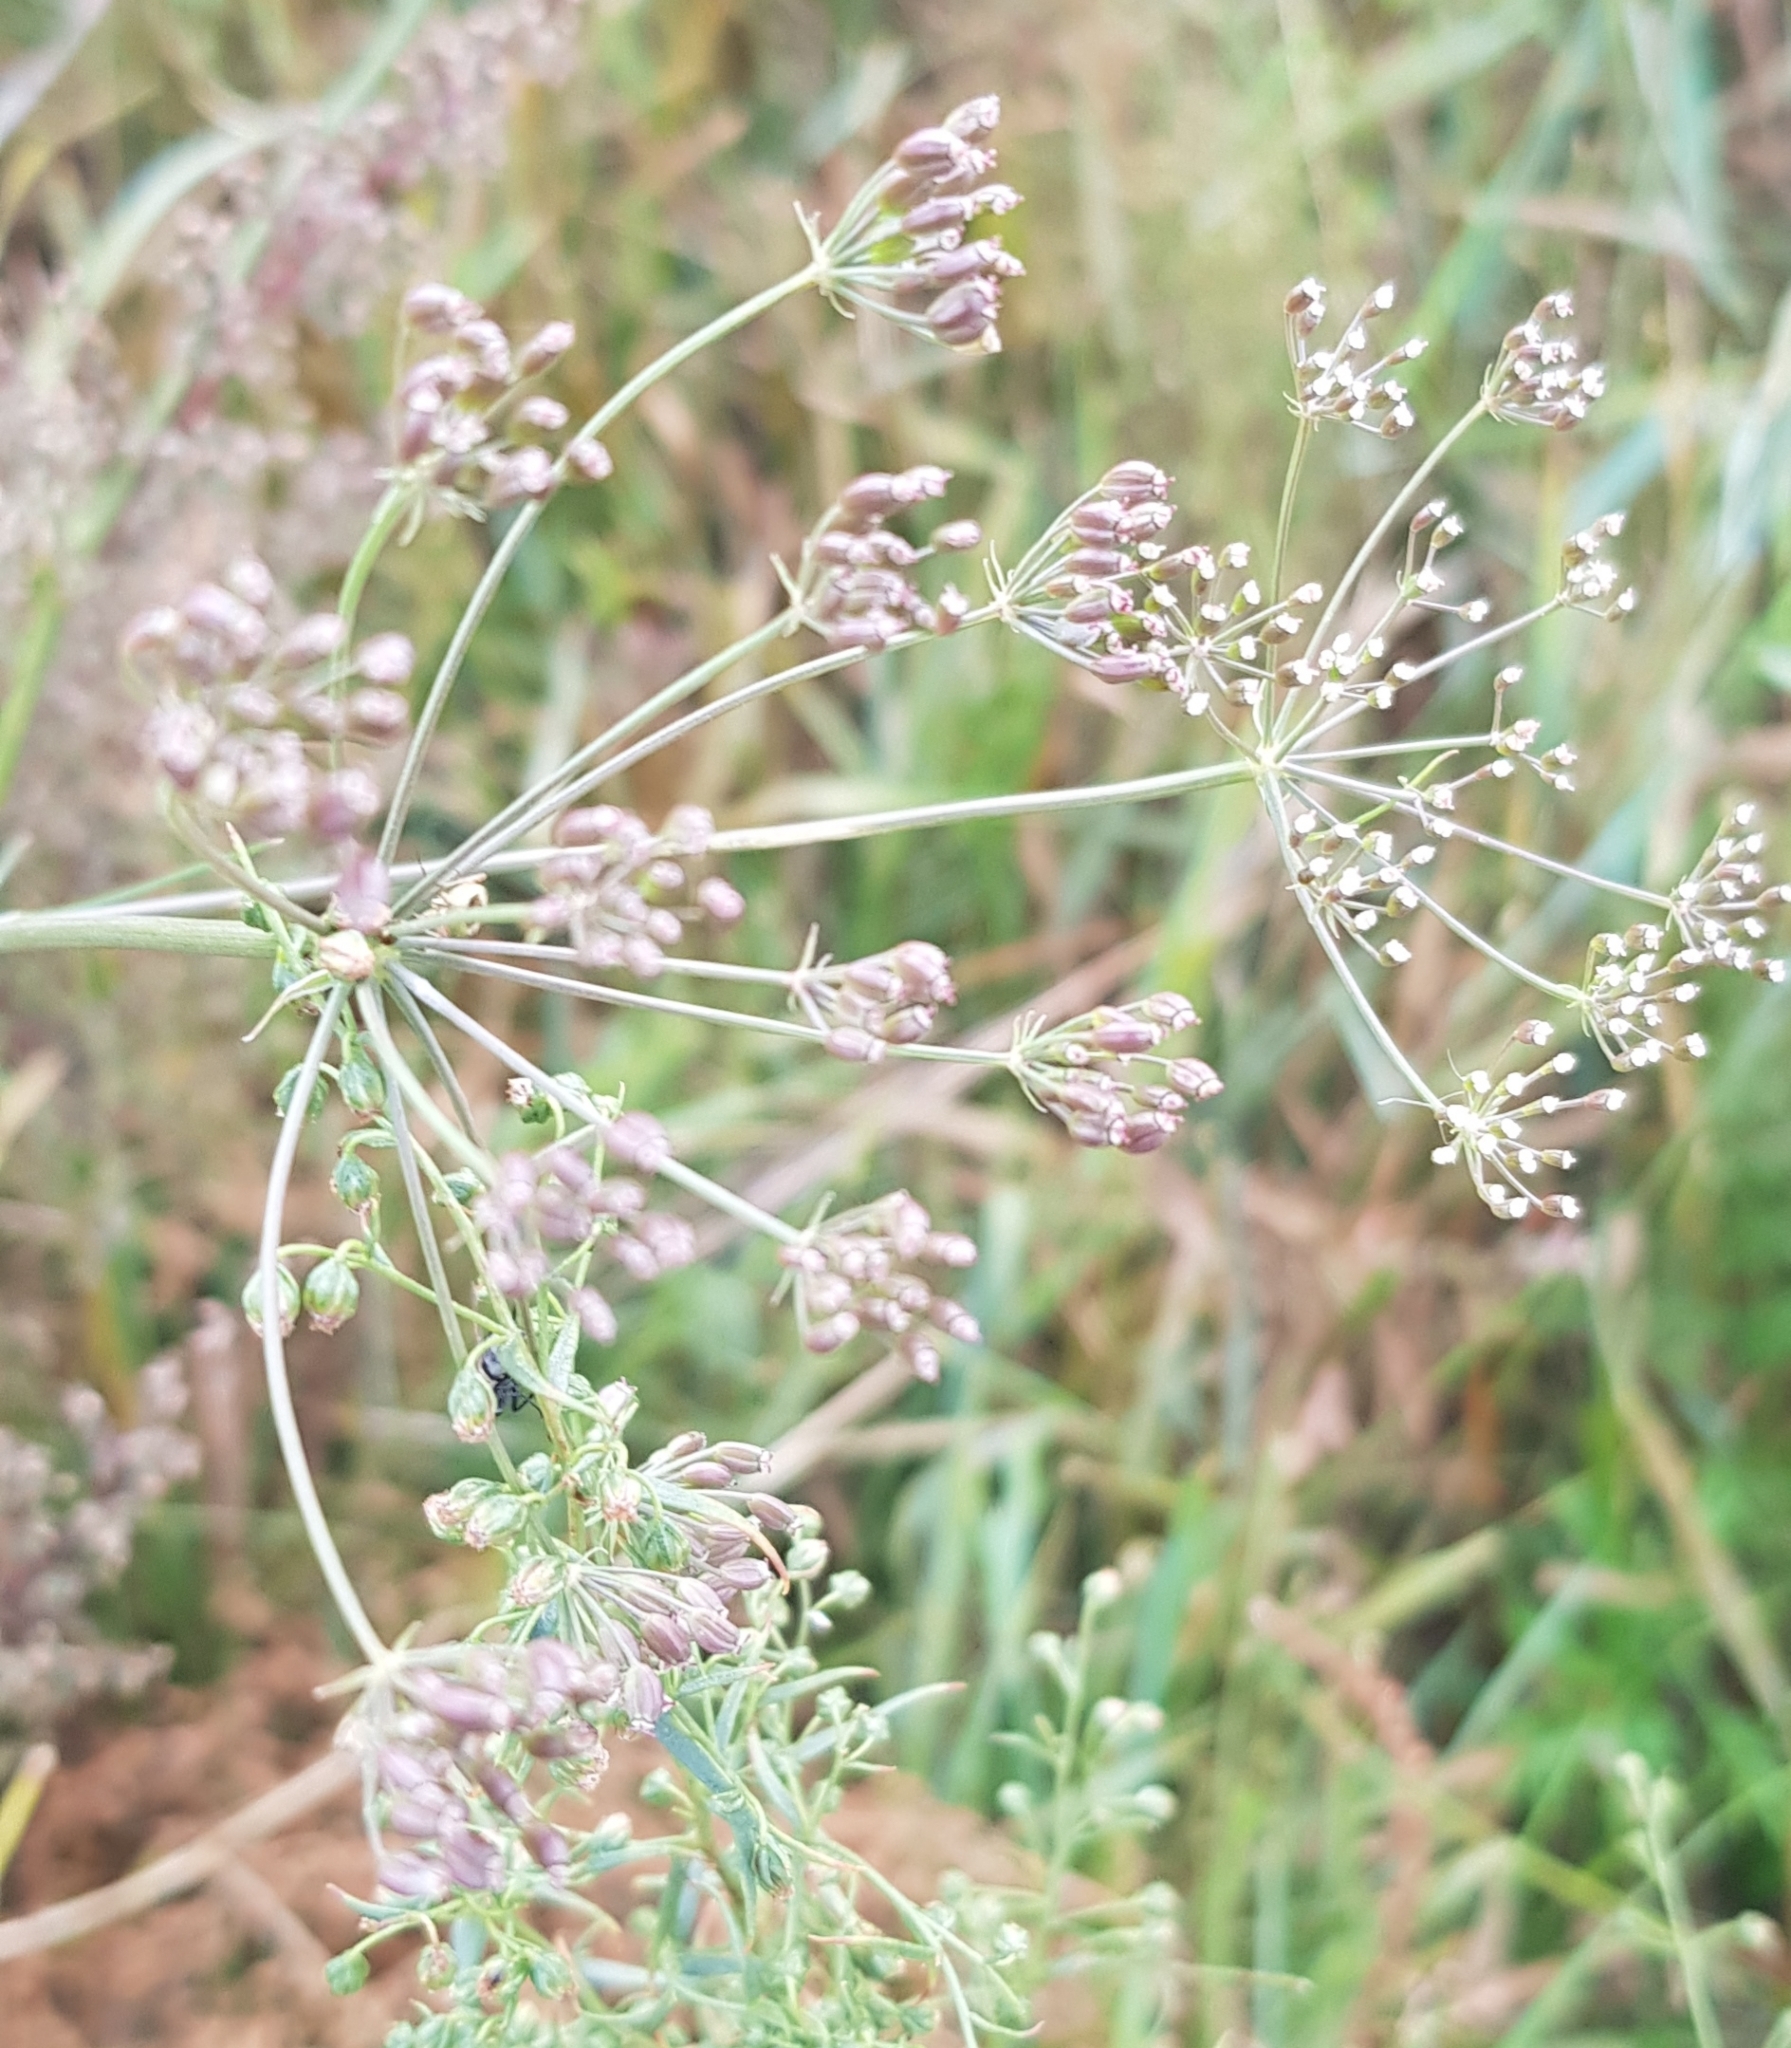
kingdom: Plantae
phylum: Tracheophyta
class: Magnoliopsida
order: Apiales
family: Apiaceae
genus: Carum
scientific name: Carum buriaticum
